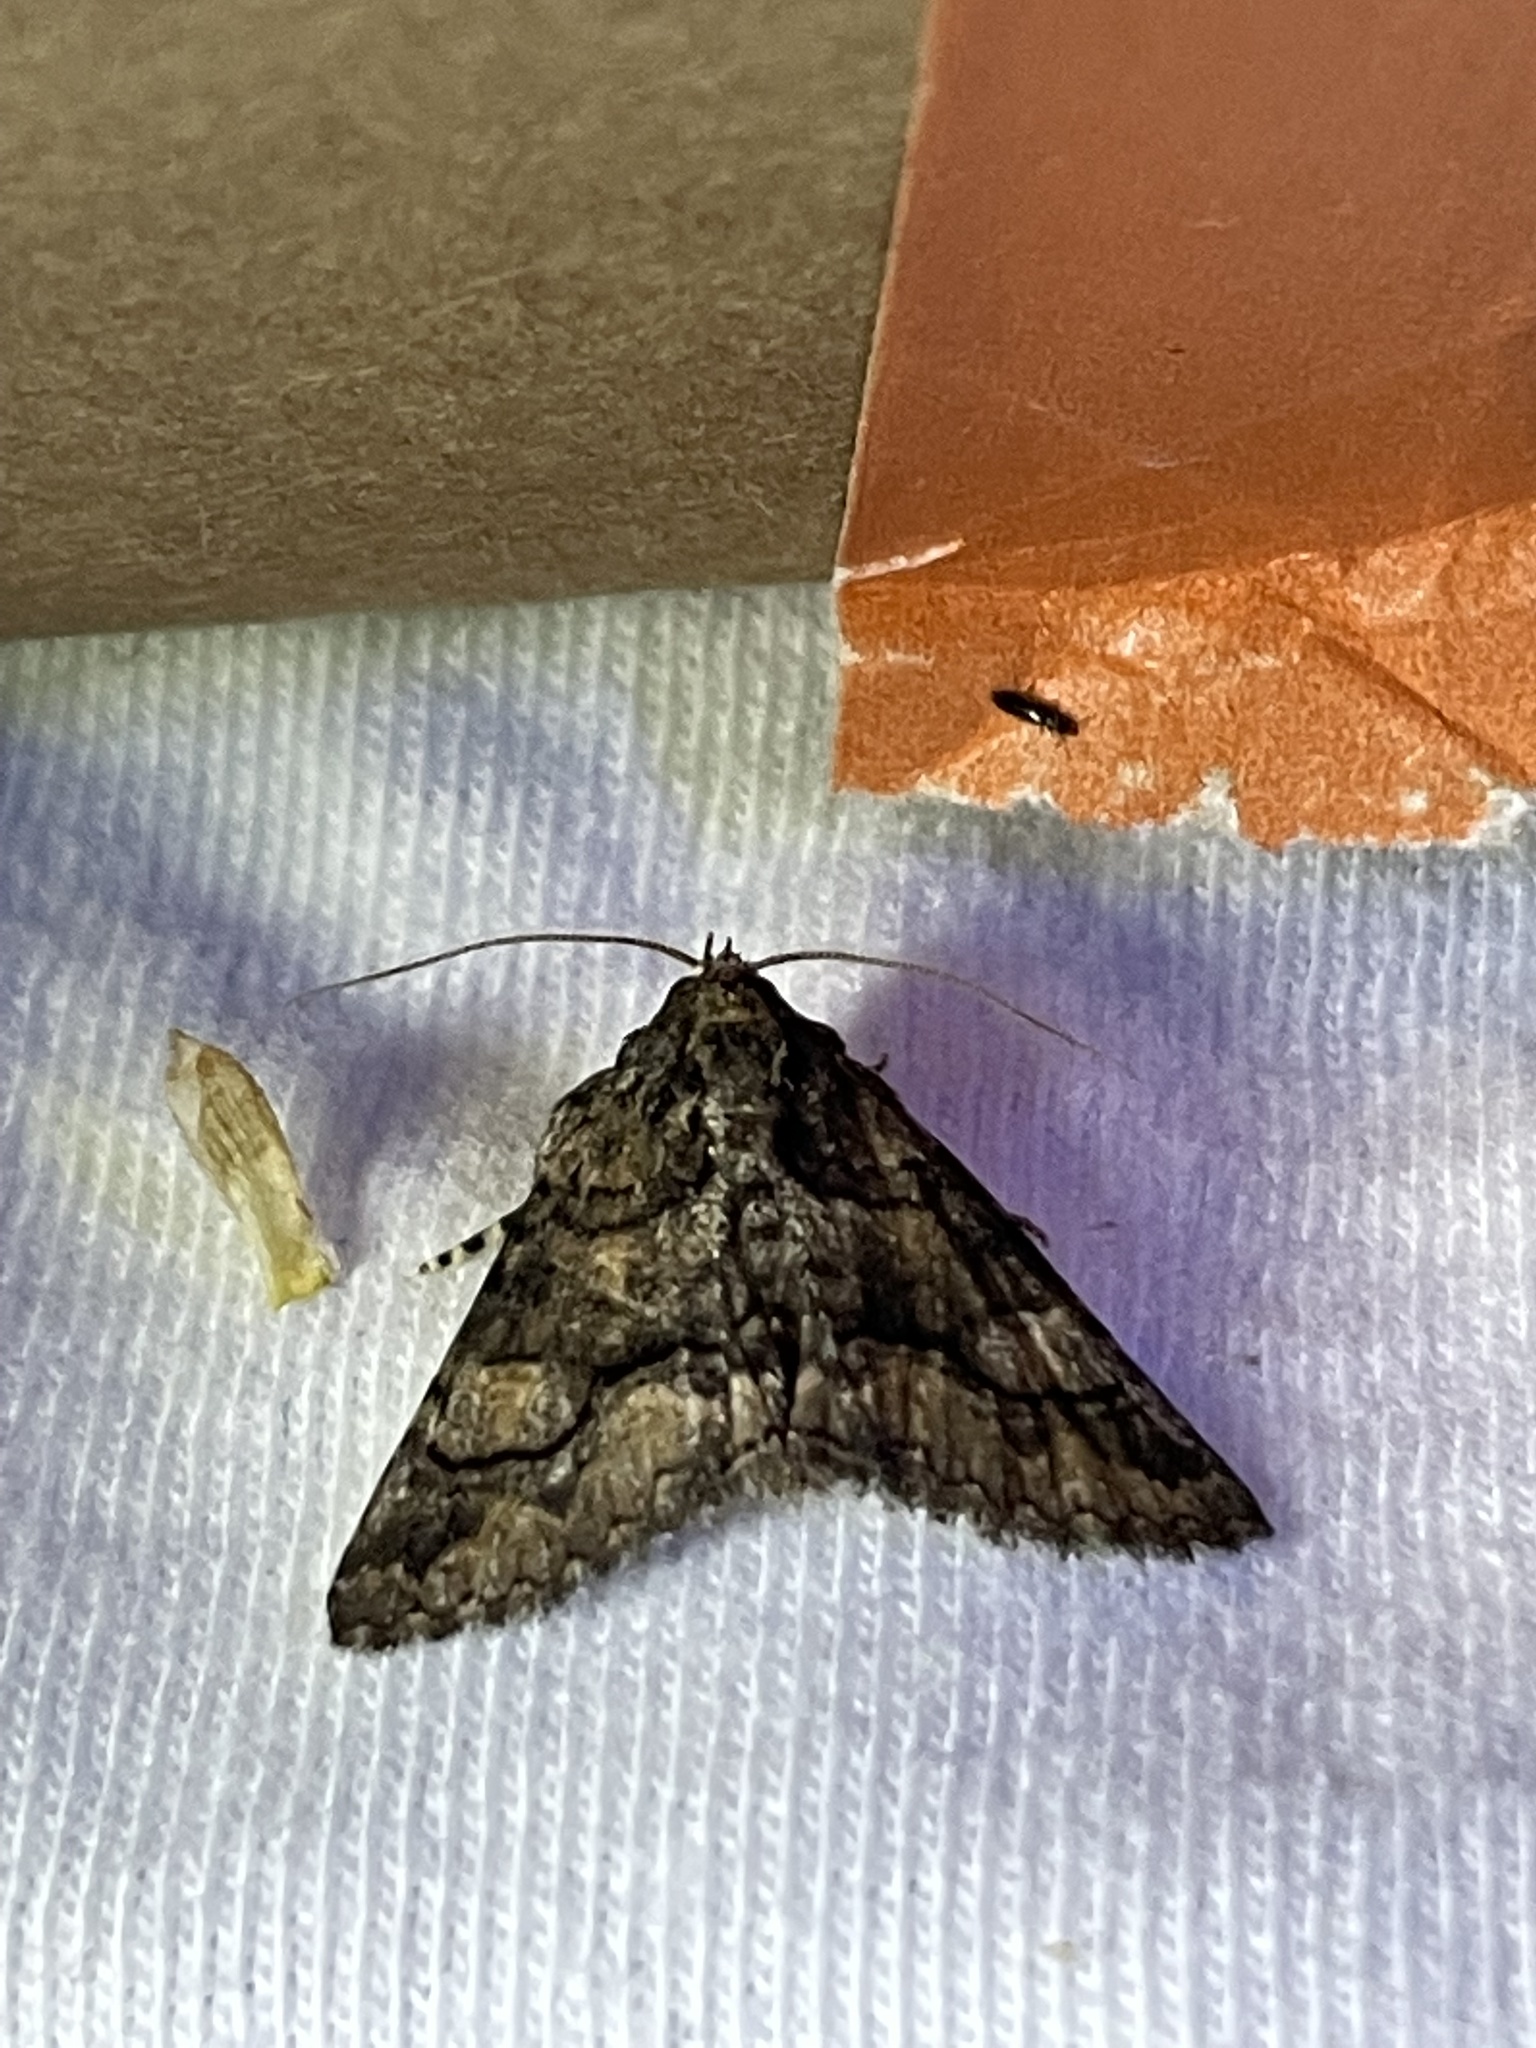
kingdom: Animalia
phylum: Arthropoda
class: Insecta
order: Lepidoptera
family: Erebidae
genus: Elousa
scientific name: Elousa mima
